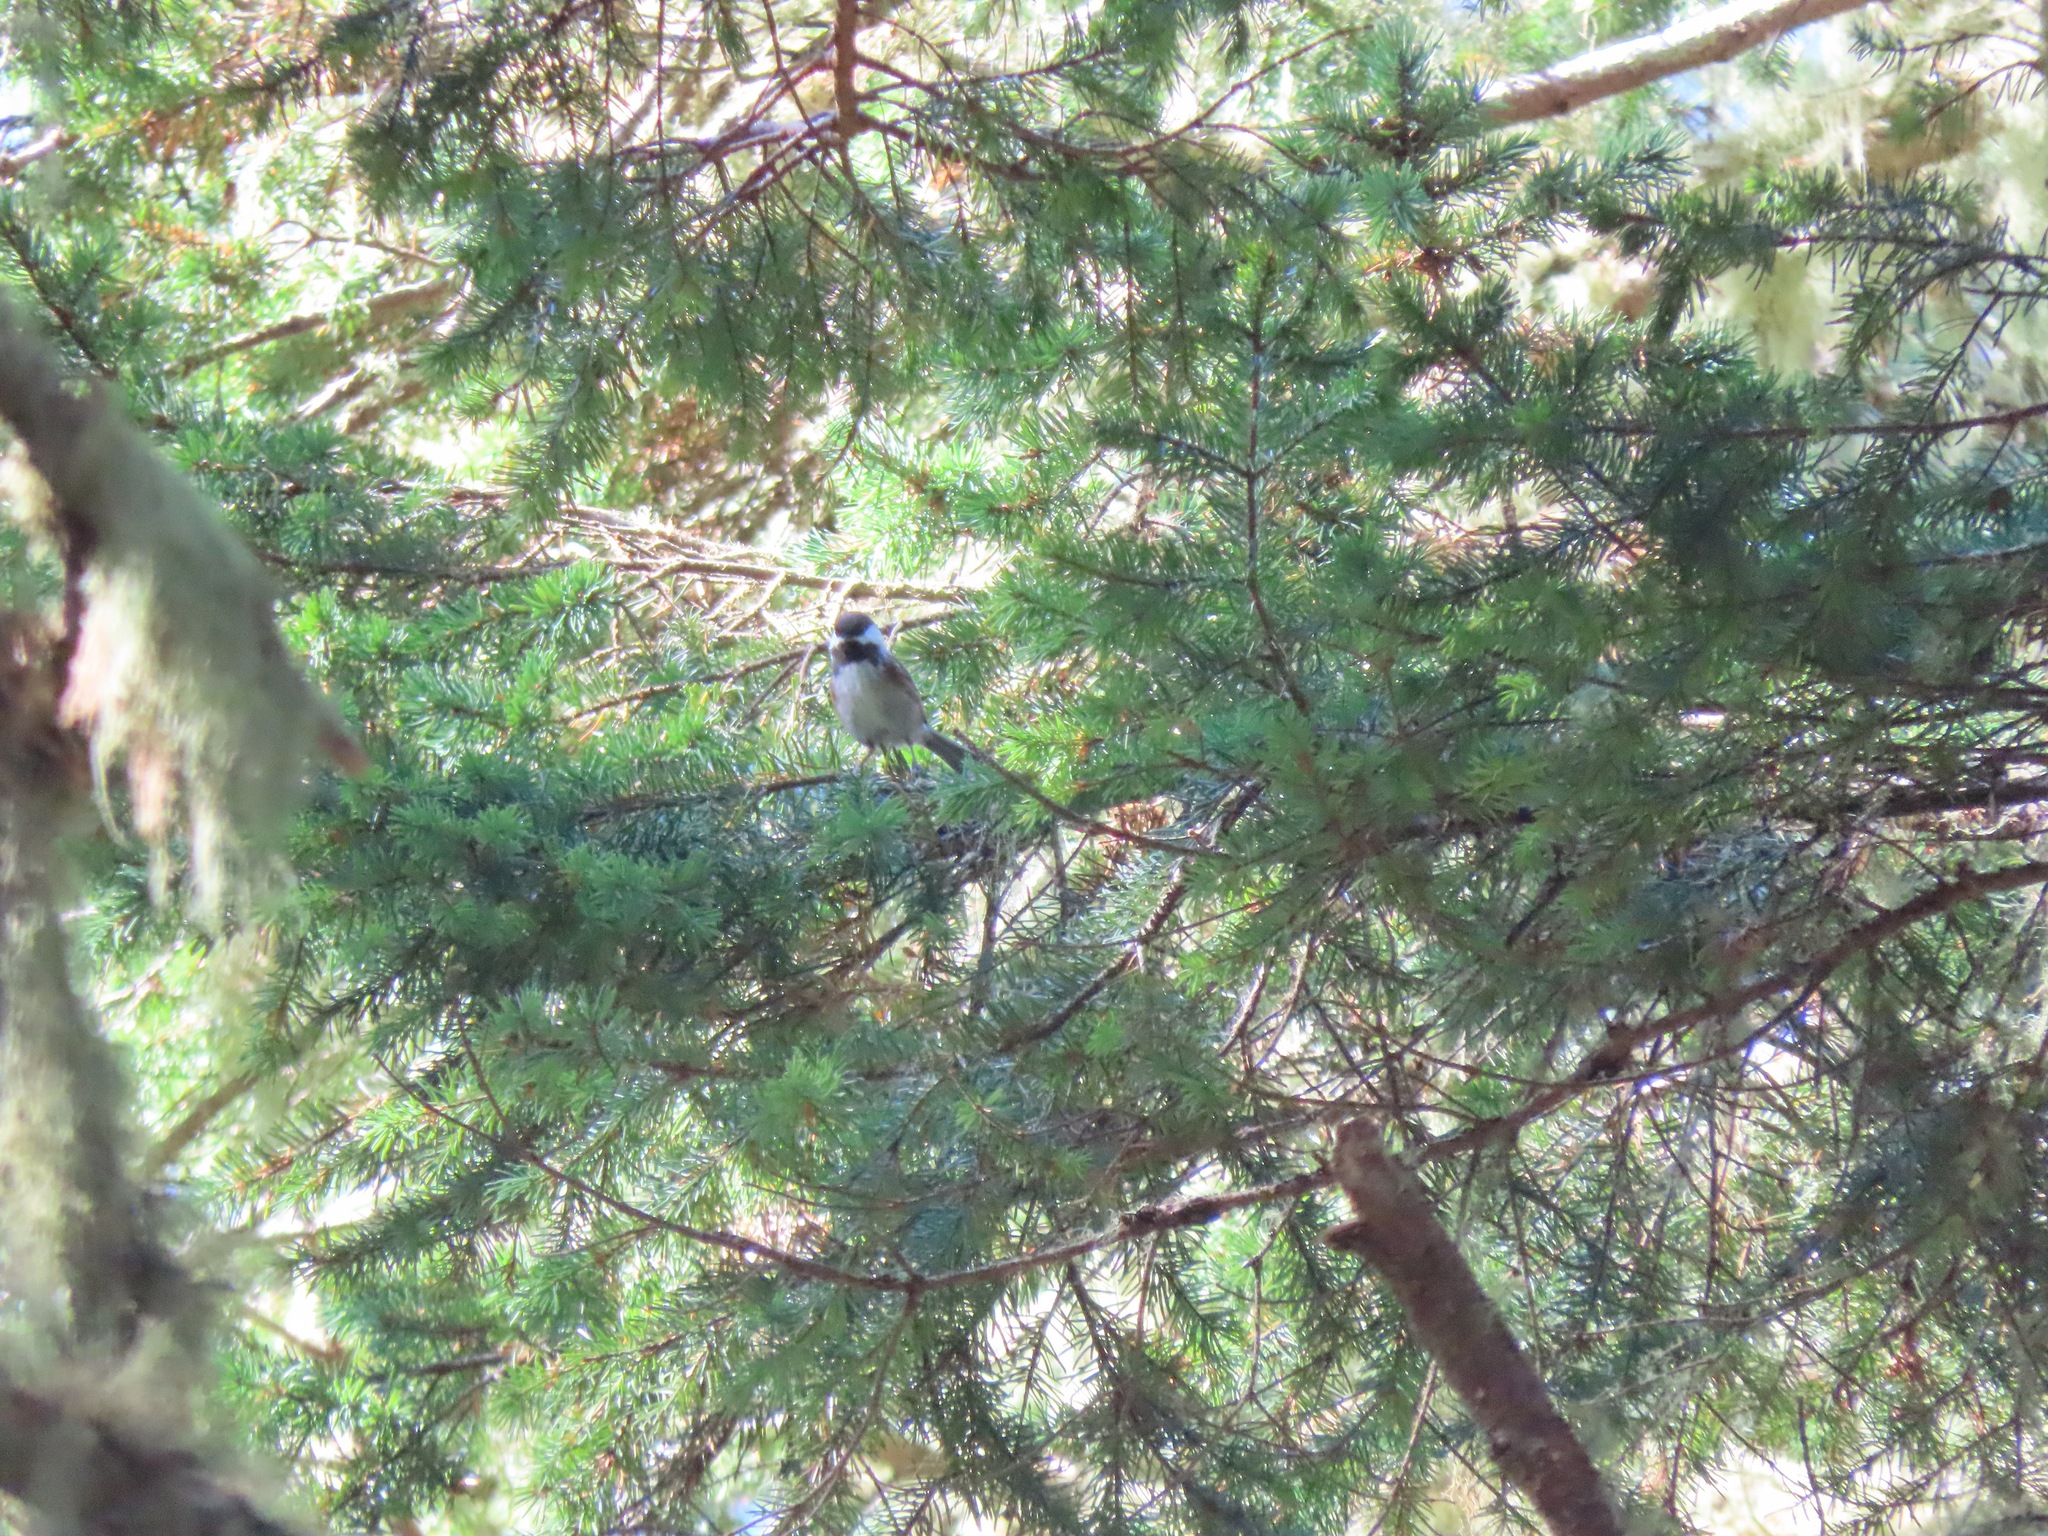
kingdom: Animalia
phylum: Chordata
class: Aves
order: Passeriformes
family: Paridae
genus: Poecile
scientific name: Poecile rufescens
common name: Chestnut-backed chickadee
